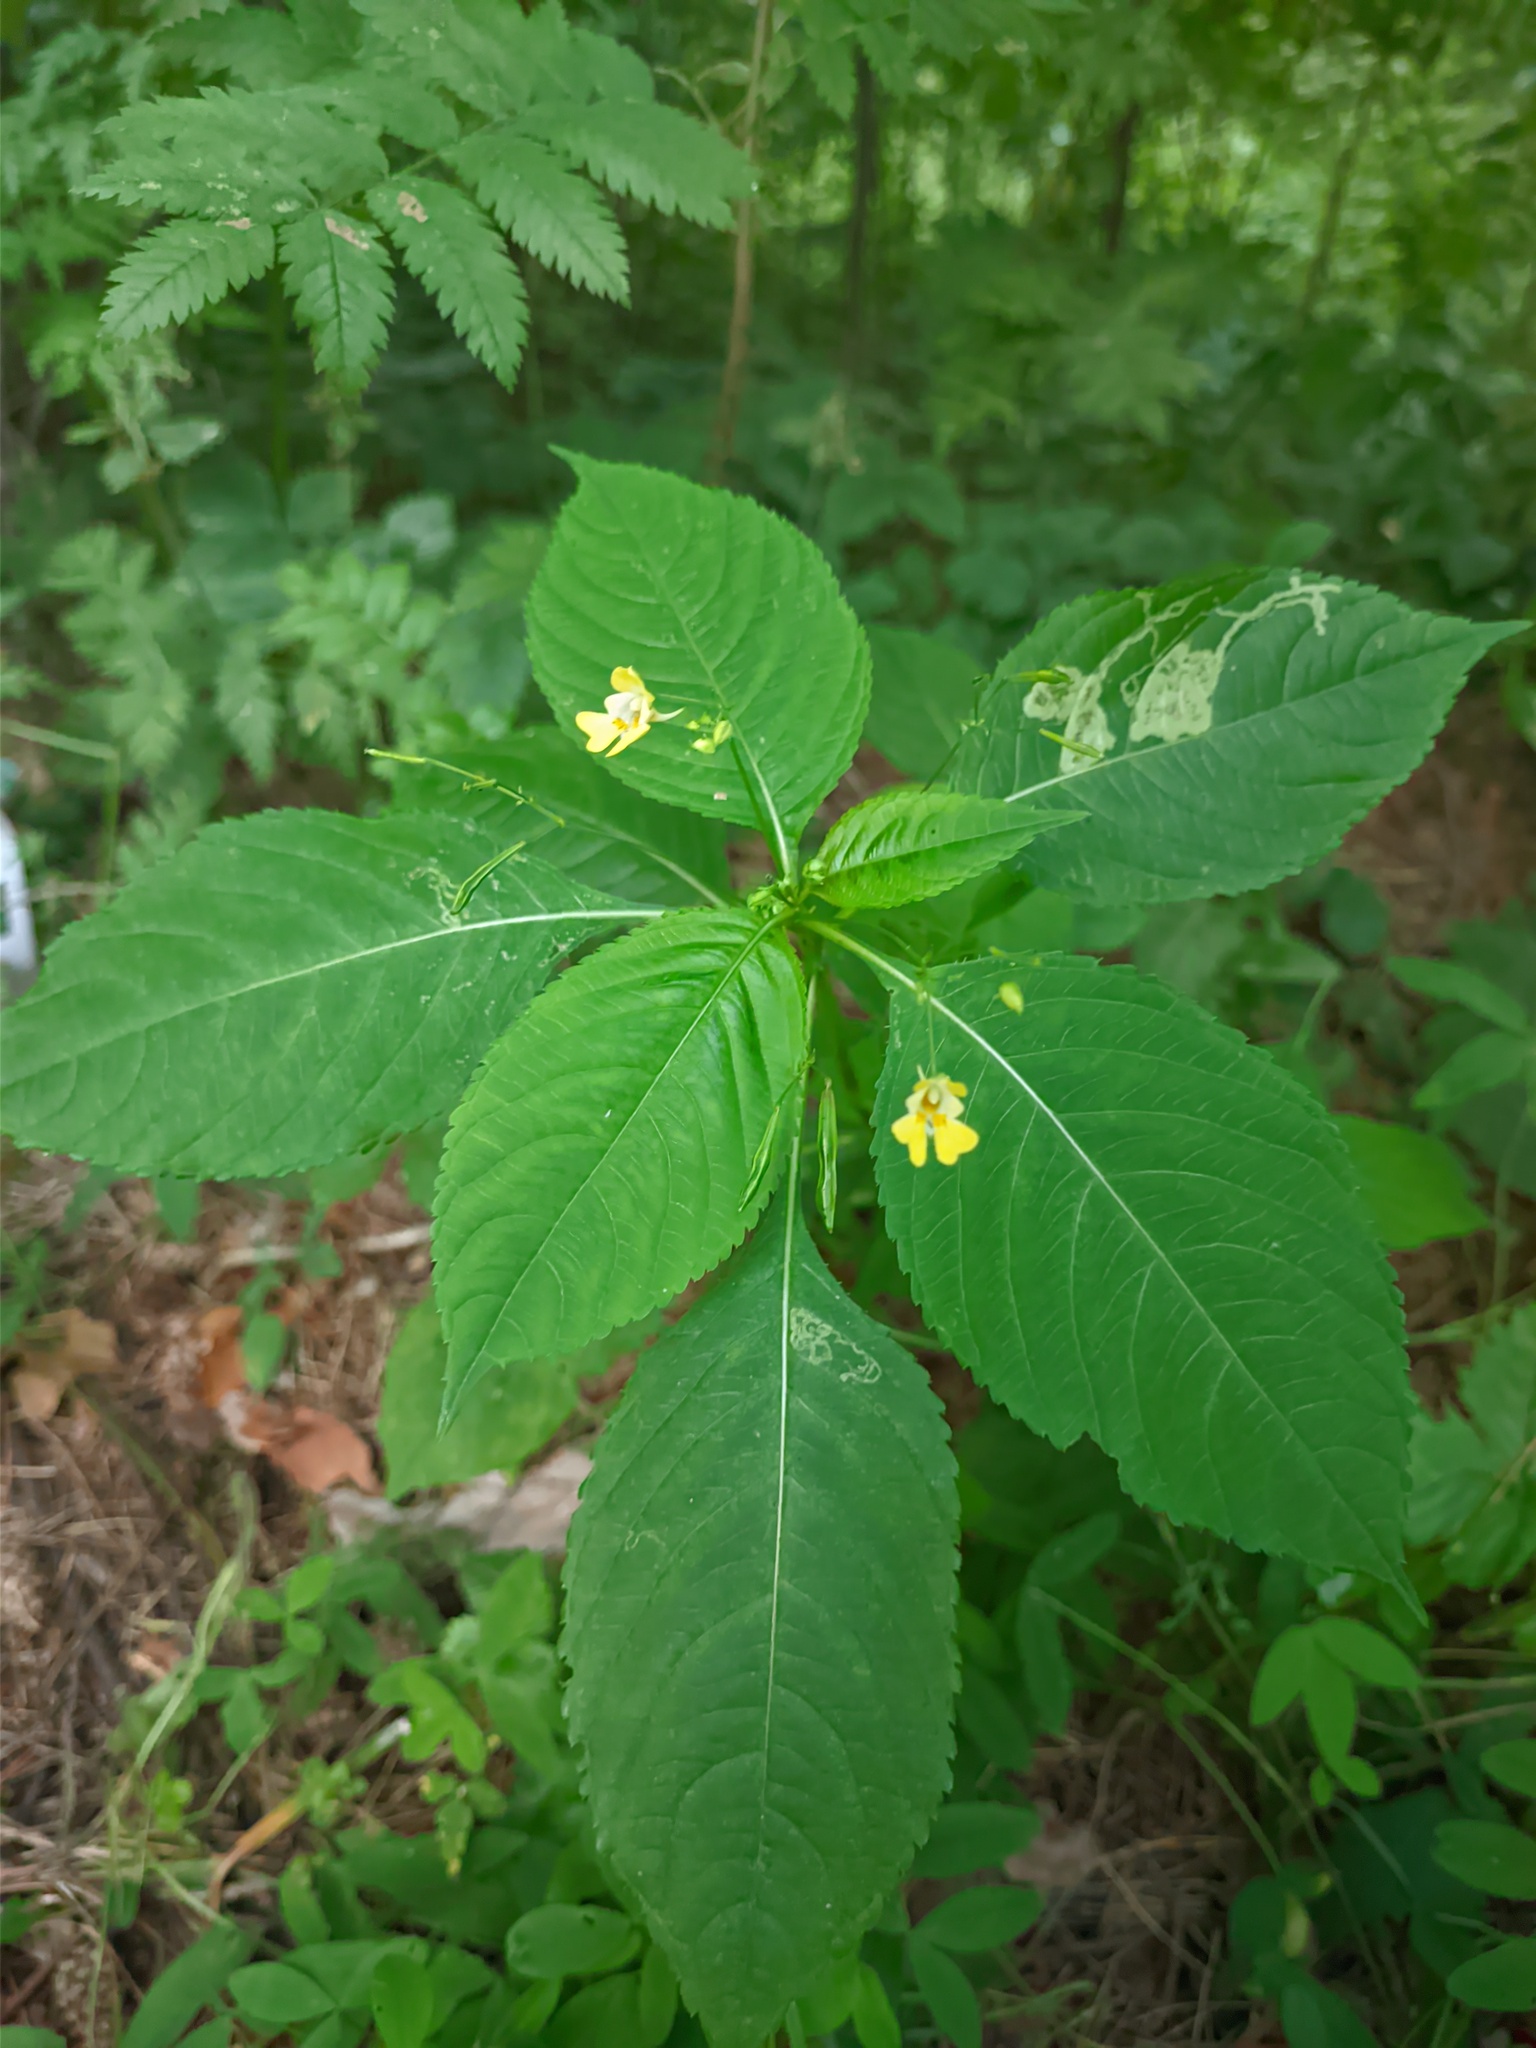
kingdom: Plantae
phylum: Tracheophyta
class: Magnoliopsida
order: Ericales
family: Balsaminaceae
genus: Impatiens
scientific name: Impatiens parviflora
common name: Small balsam
